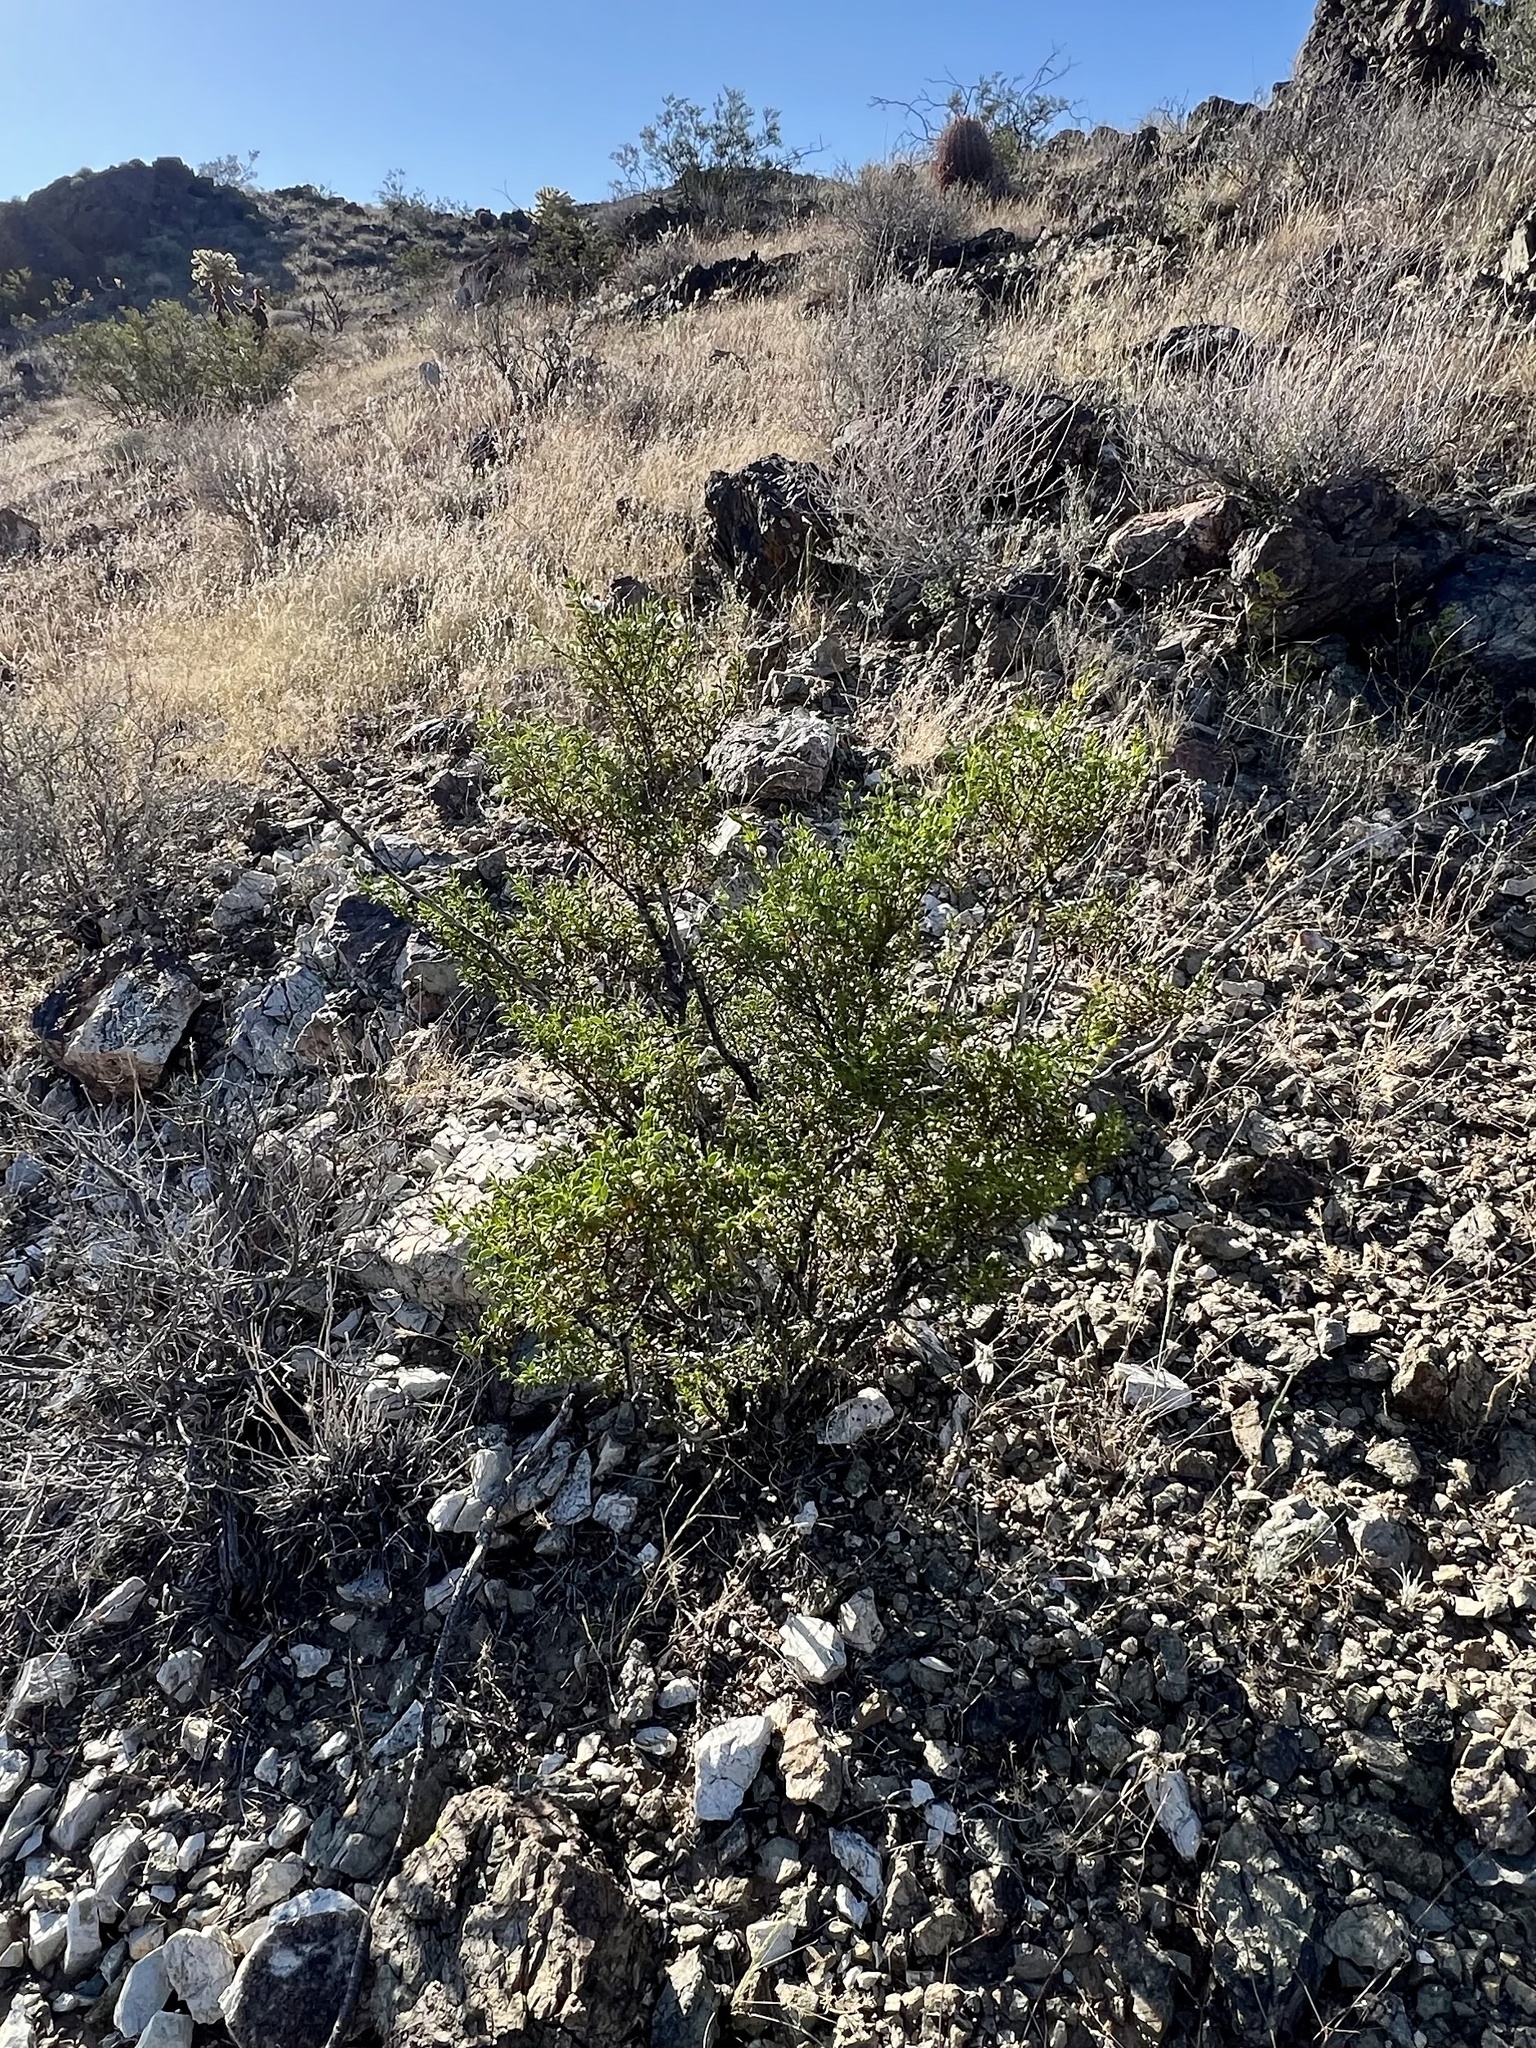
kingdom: Plantae
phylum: Tracheophyta
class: Magnoliopsida
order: Zygophyllales
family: Zygophyllaceae
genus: Larrea
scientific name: Larrea tridentata
